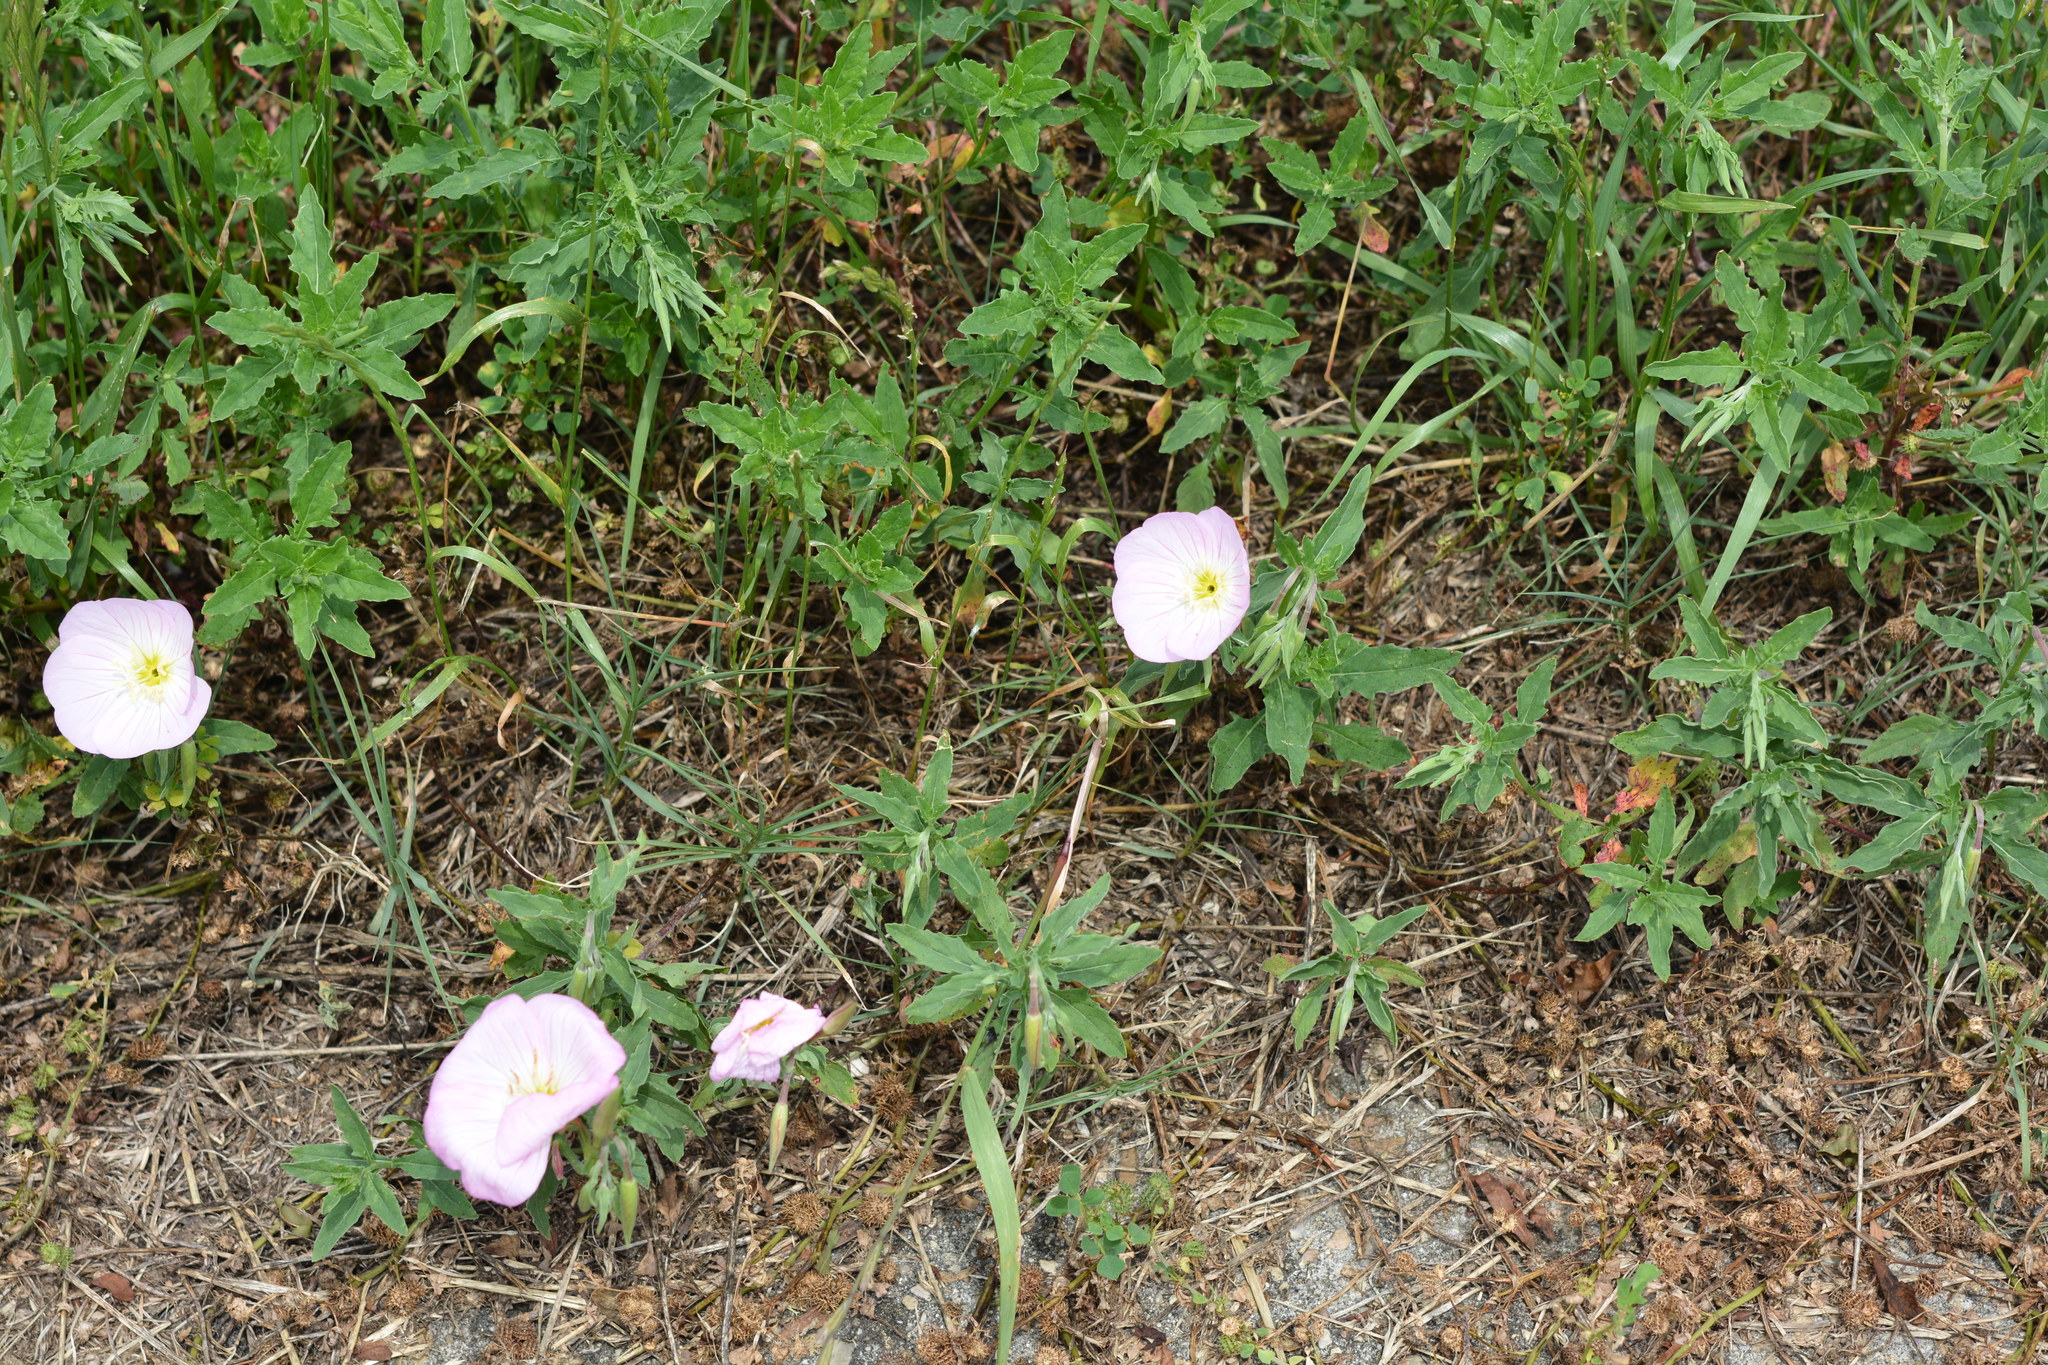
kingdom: Plantae
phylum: Tracheophyta
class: Magnoliopsida
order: Myrtales
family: Onagraceae
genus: Oenothera
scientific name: Oenothera speciosa
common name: White evening-primrose
